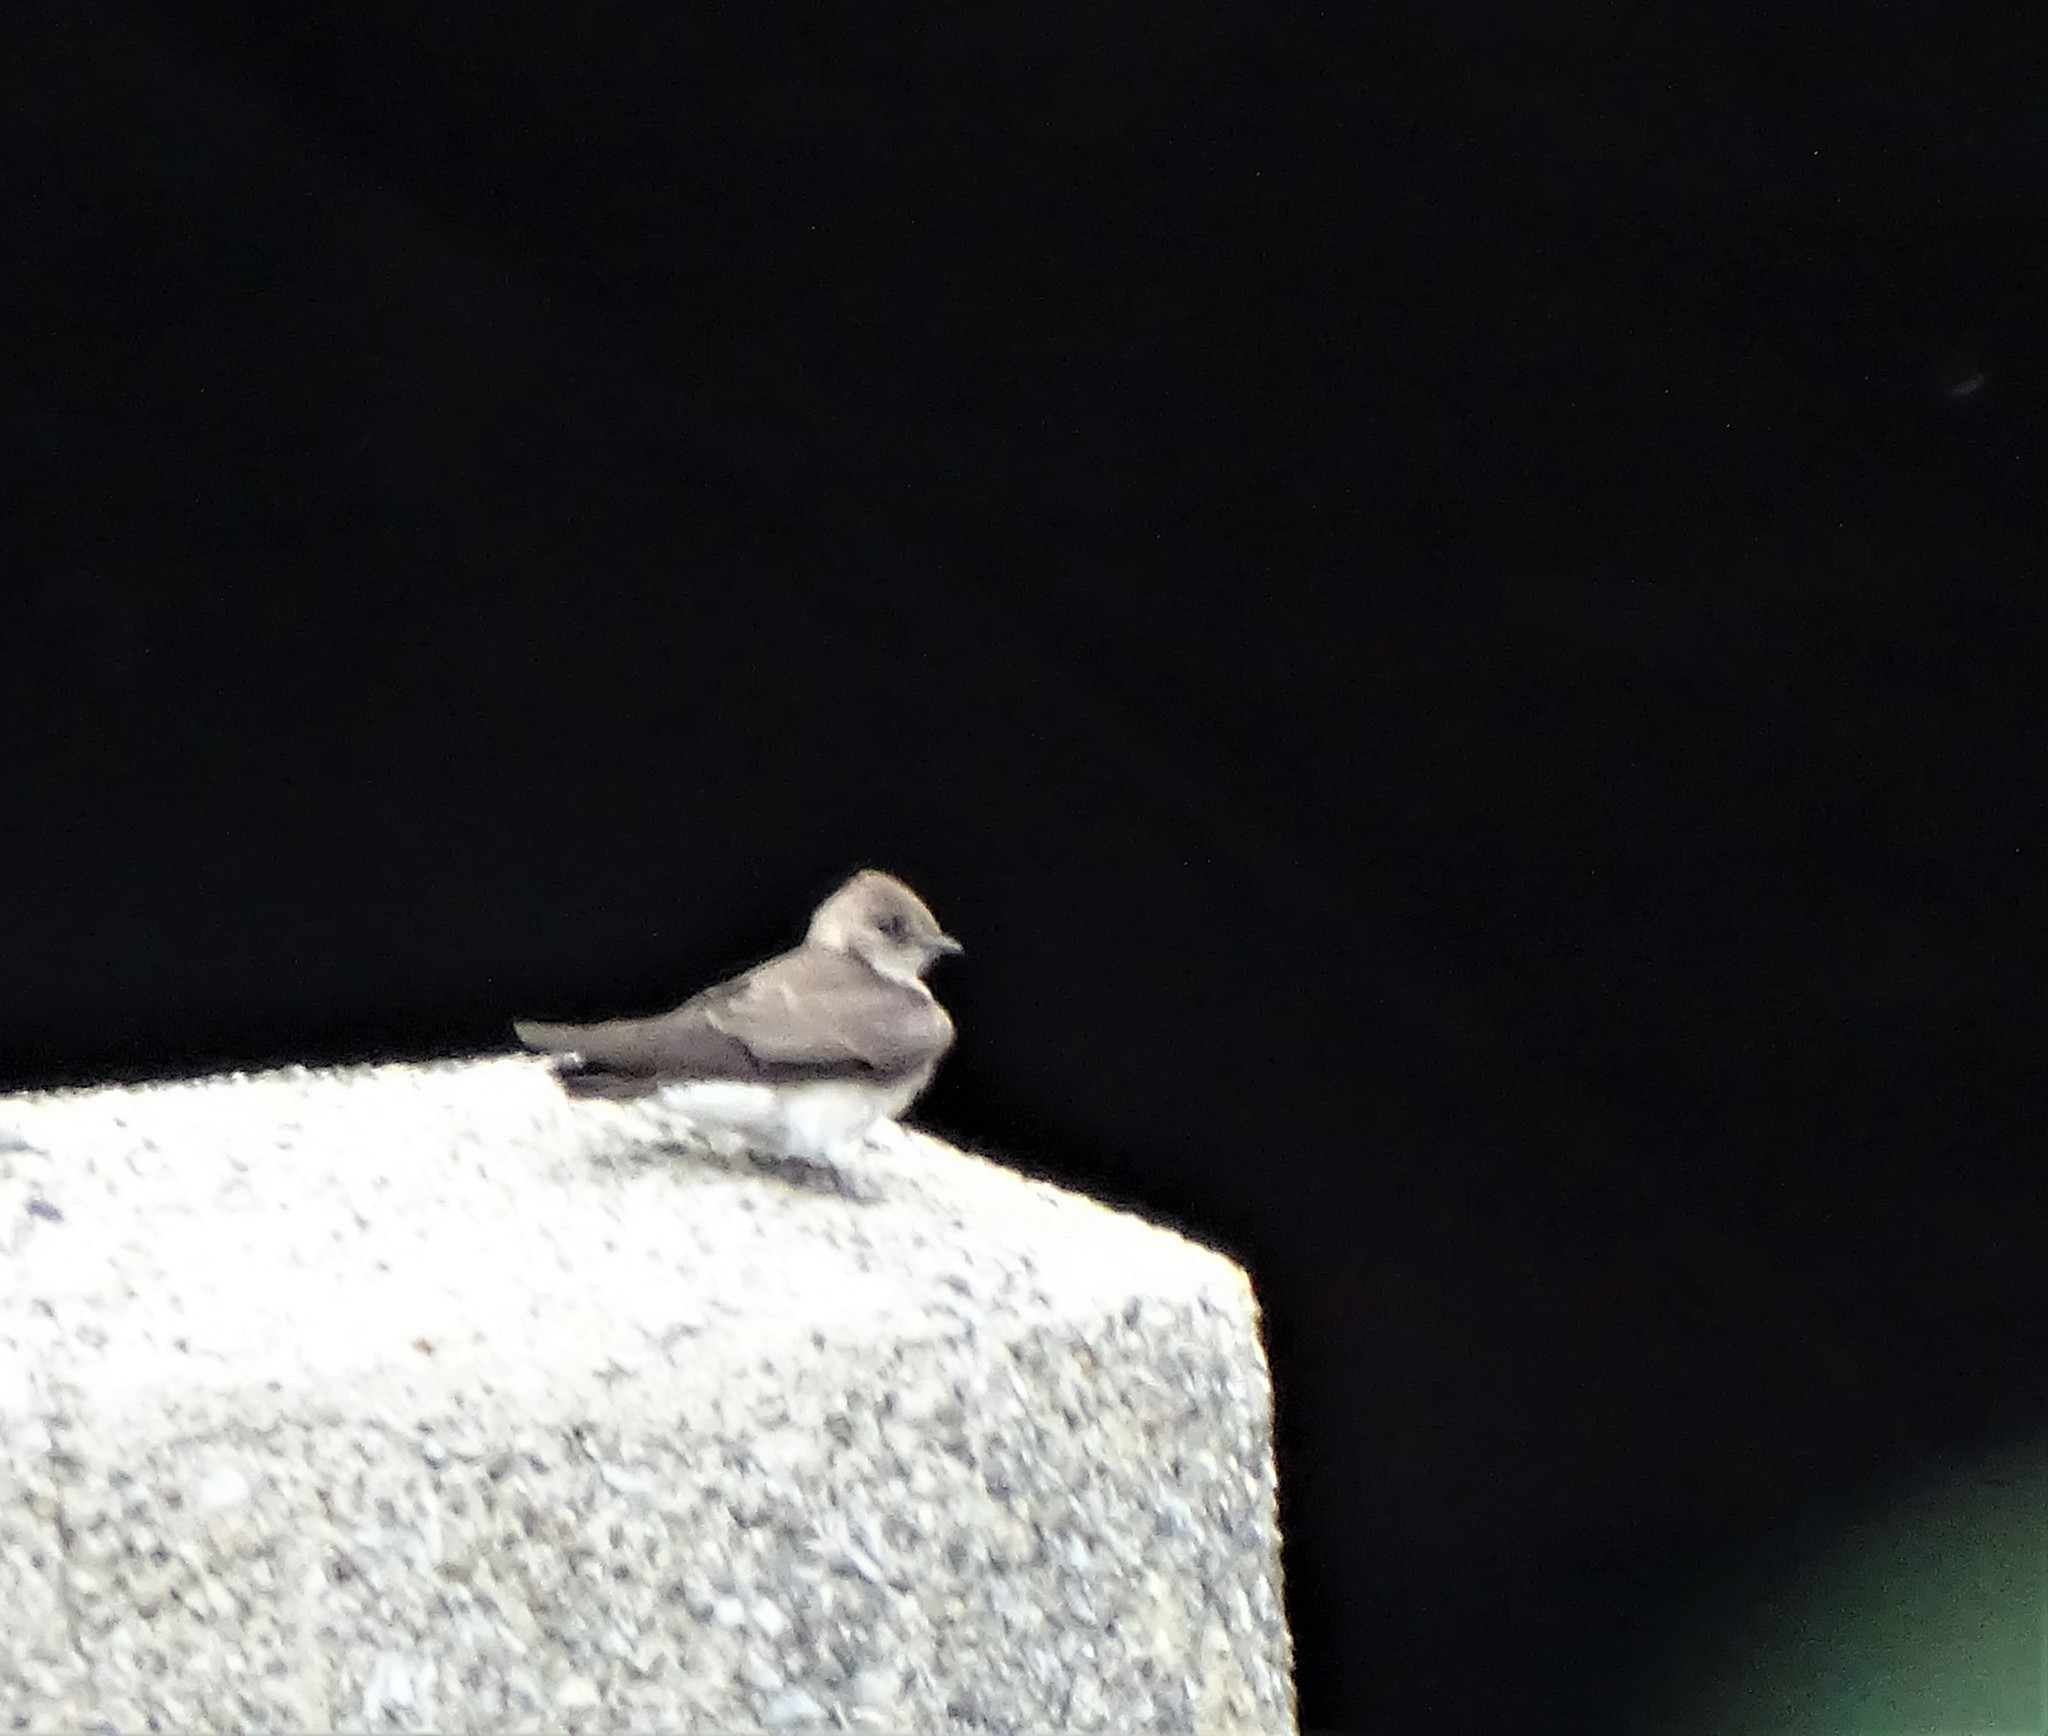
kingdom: Animalia
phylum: Chordata
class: Aves
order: Passeriformes
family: Hirundinidae
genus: Stelgidopteryx
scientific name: Stelgidopteryx serripennis
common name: Northern rough-winged swallow
